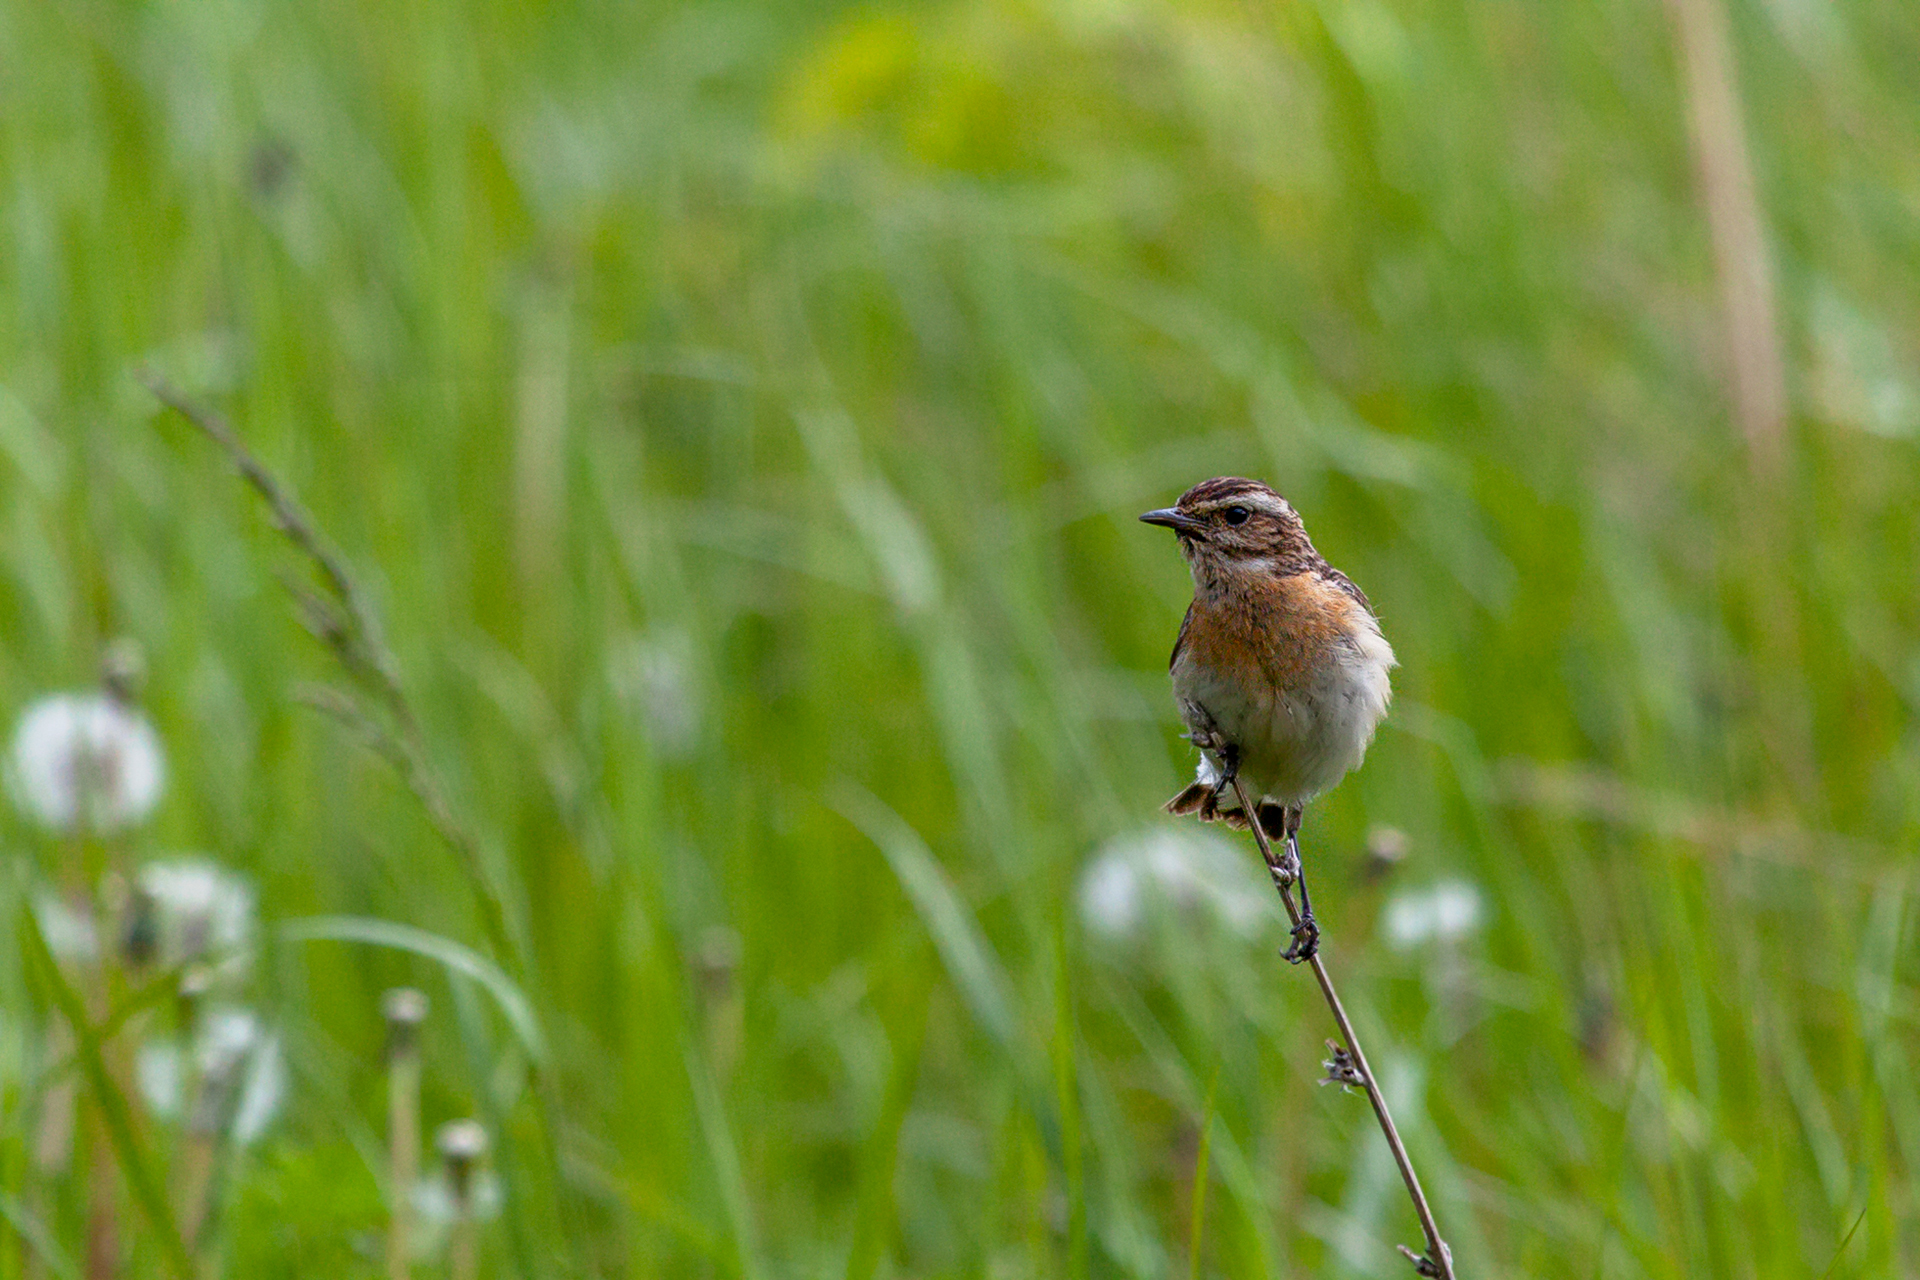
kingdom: Animalia
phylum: Chordata
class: Aves
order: Passeriformes
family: Muscicapidae
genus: Saxicola
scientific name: Saxicola rubetra
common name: Whinchat
